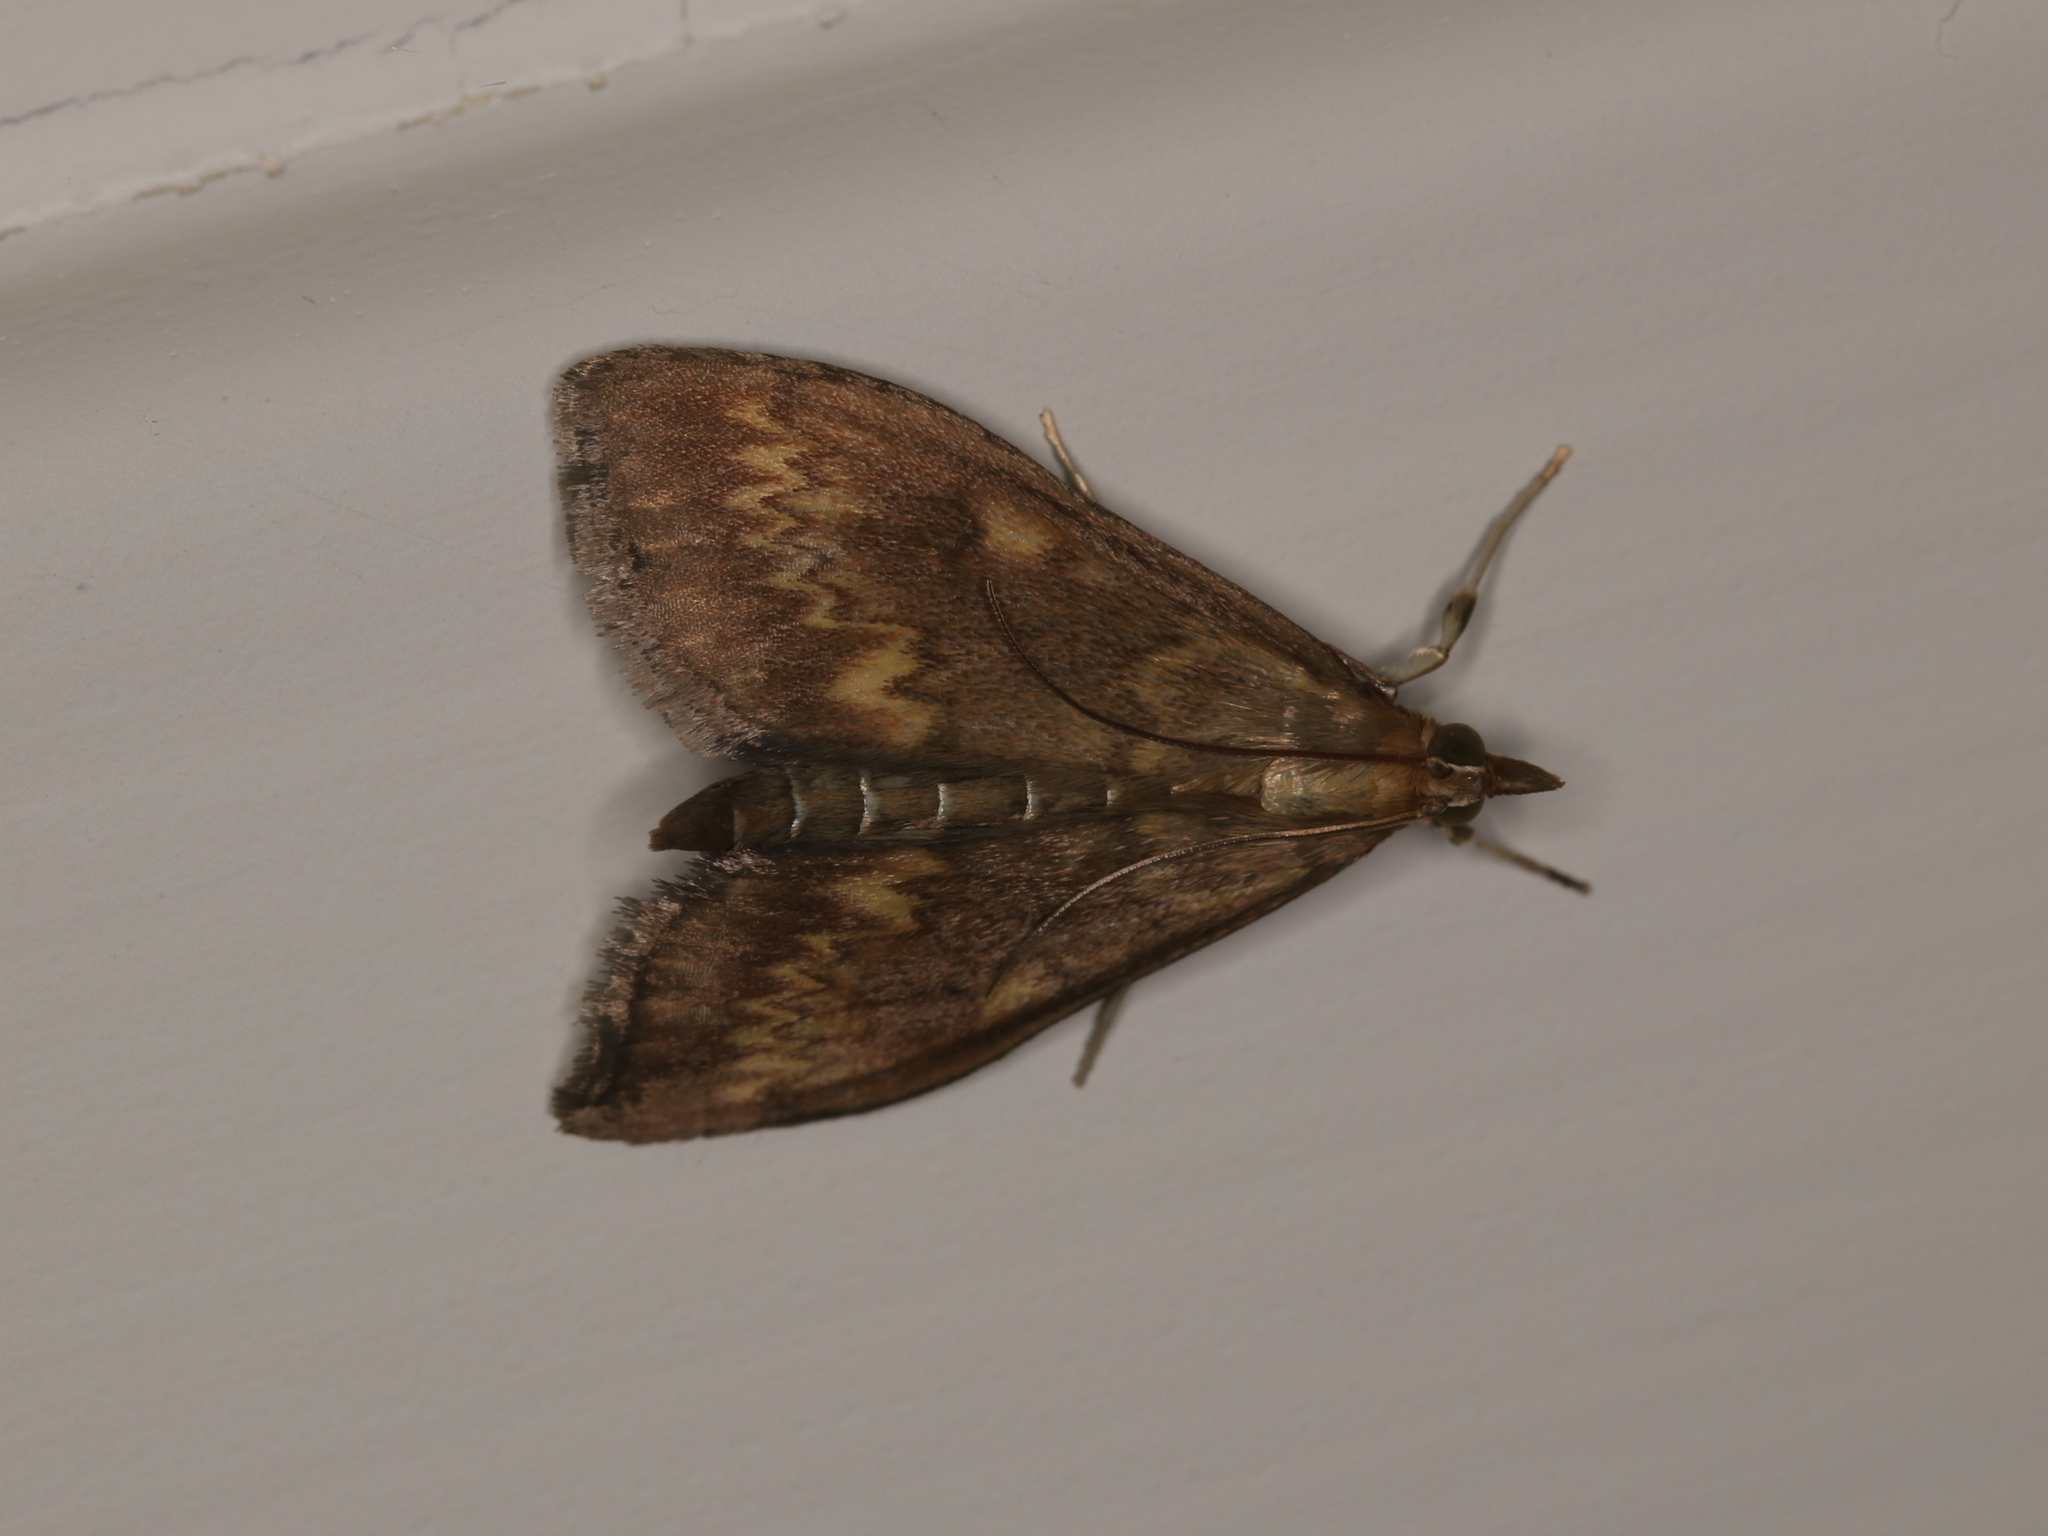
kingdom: Animalia
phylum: Arthropoda
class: Insecta
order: Lepidoptera
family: Crambidae
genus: Ostrinia
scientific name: Ostrinia nubilalis
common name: European corn borer
